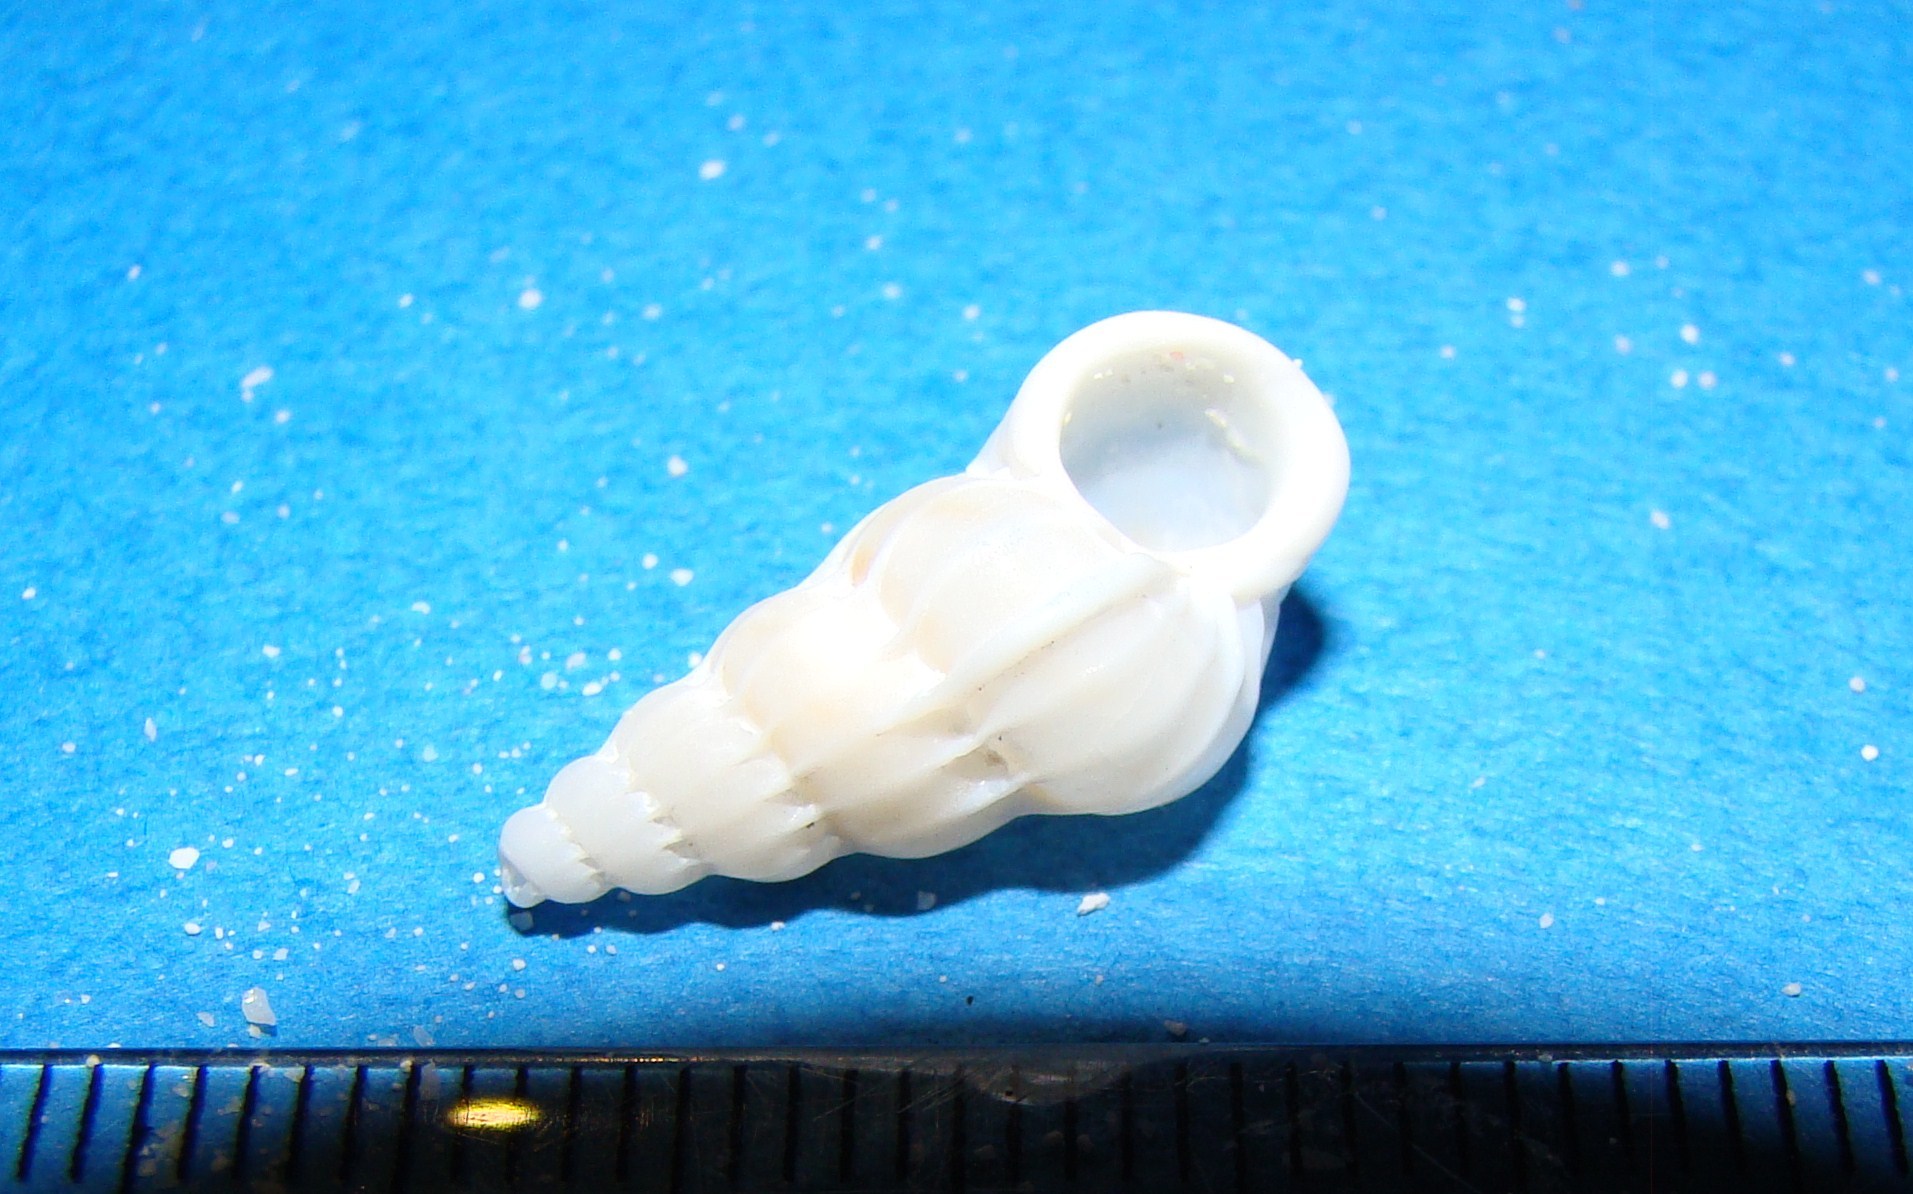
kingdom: Animalia
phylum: Mollusca
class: Gastropoda
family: Epitoniidae
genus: Gyroscala
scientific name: Gyroscala commutata
